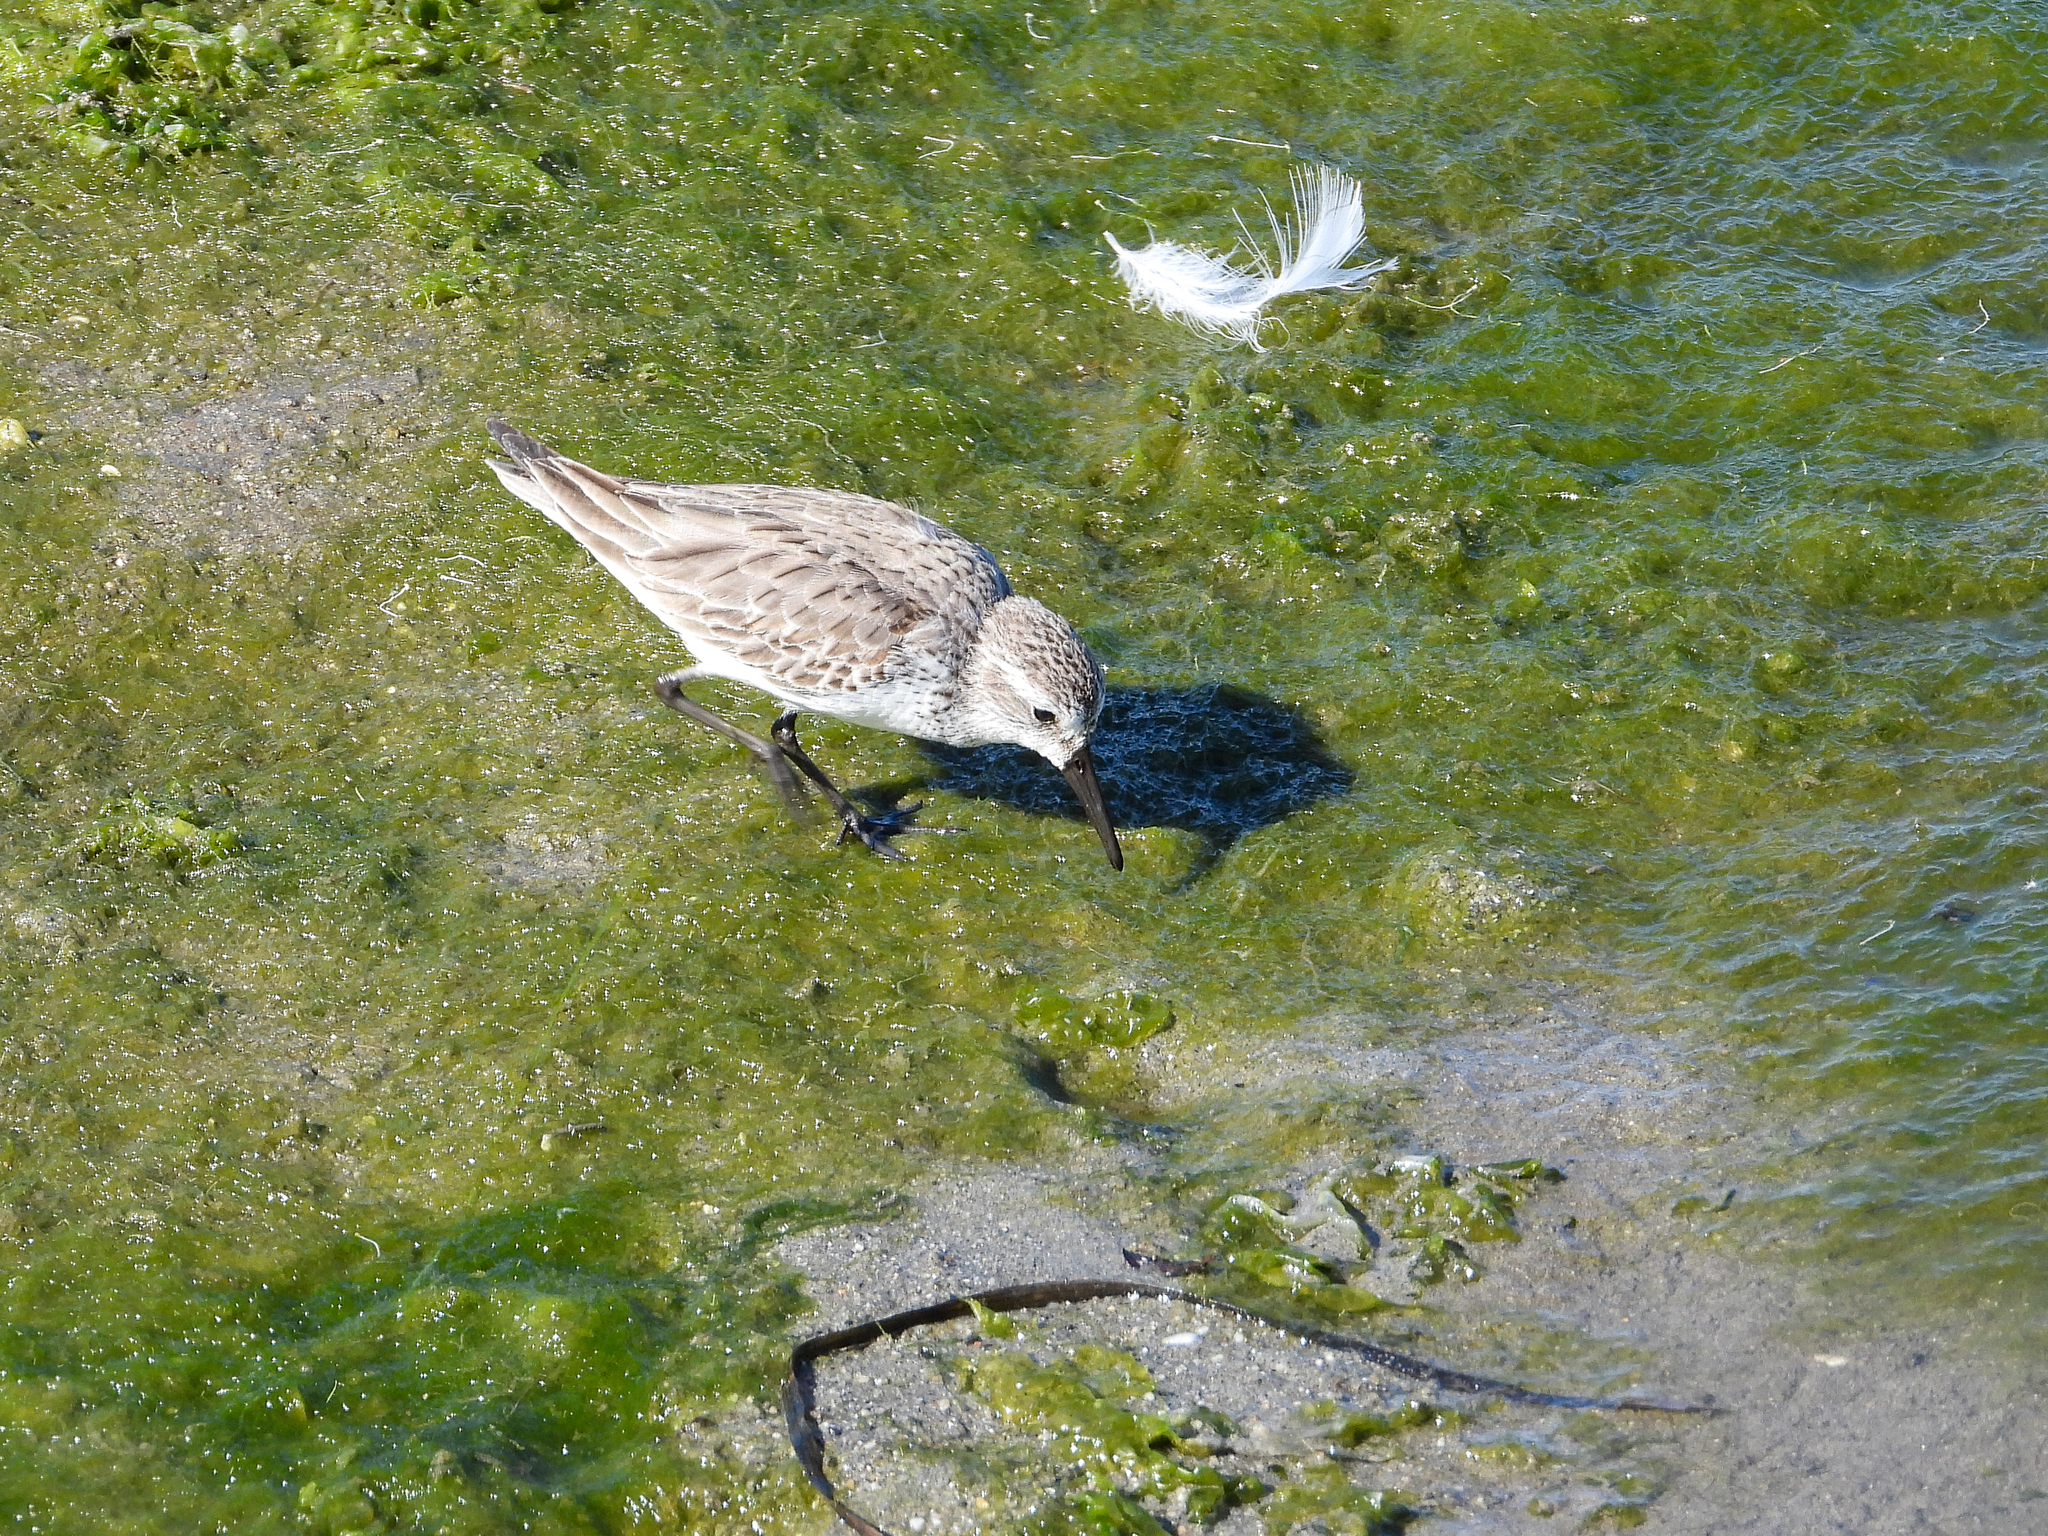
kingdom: Animalia
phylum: Chordata
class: Aves
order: Charadriiformes
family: Scolopacidae
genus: Calidris
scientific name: Calidris mauri
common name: Western sandpiper
